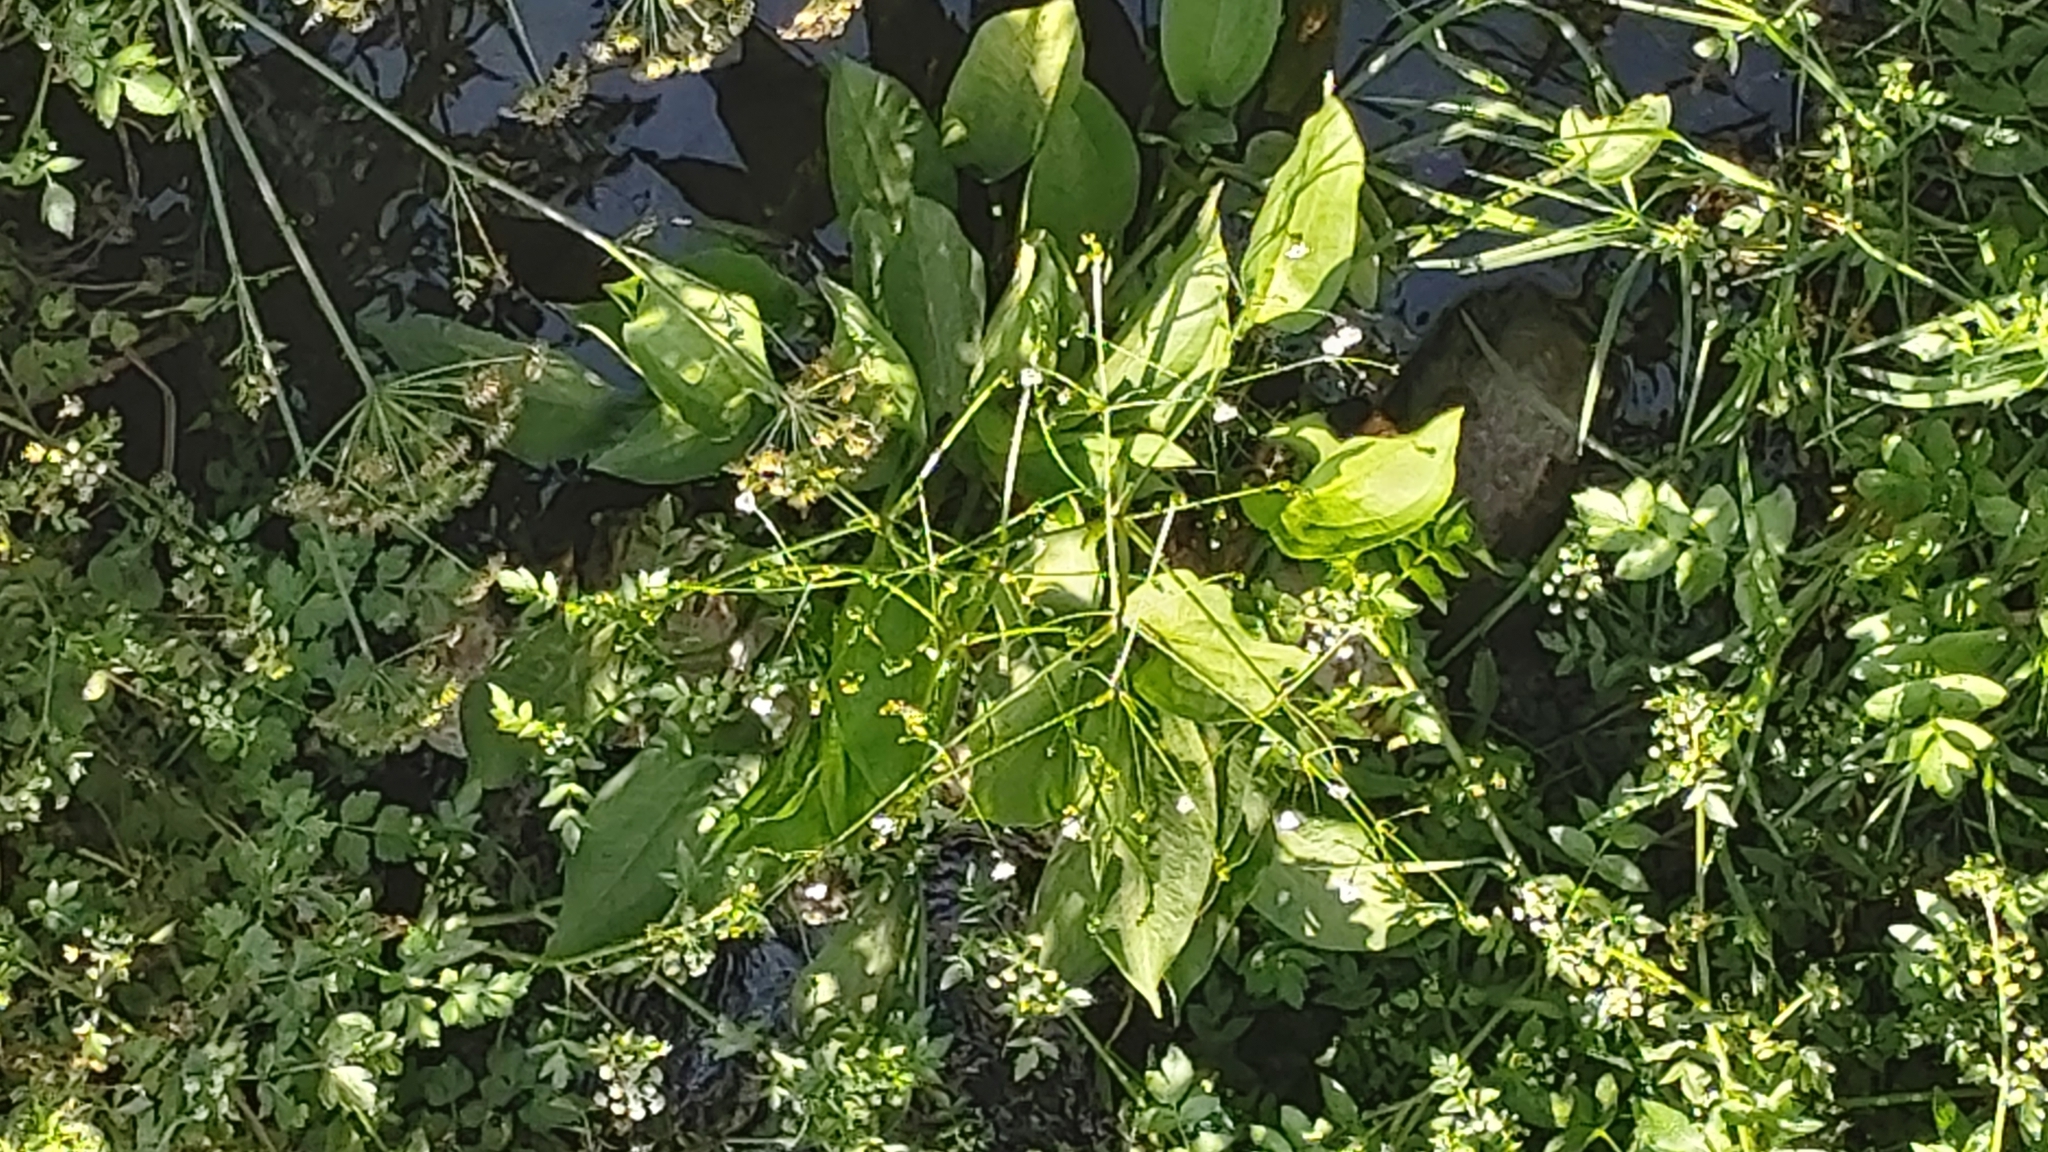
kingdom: Plantae
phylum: Tracheophyta
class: Liliopsida
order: Alismatales
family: Alismataceae
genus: Alisma
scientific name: Alisma plantago-aquatica
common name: Water-plantain
